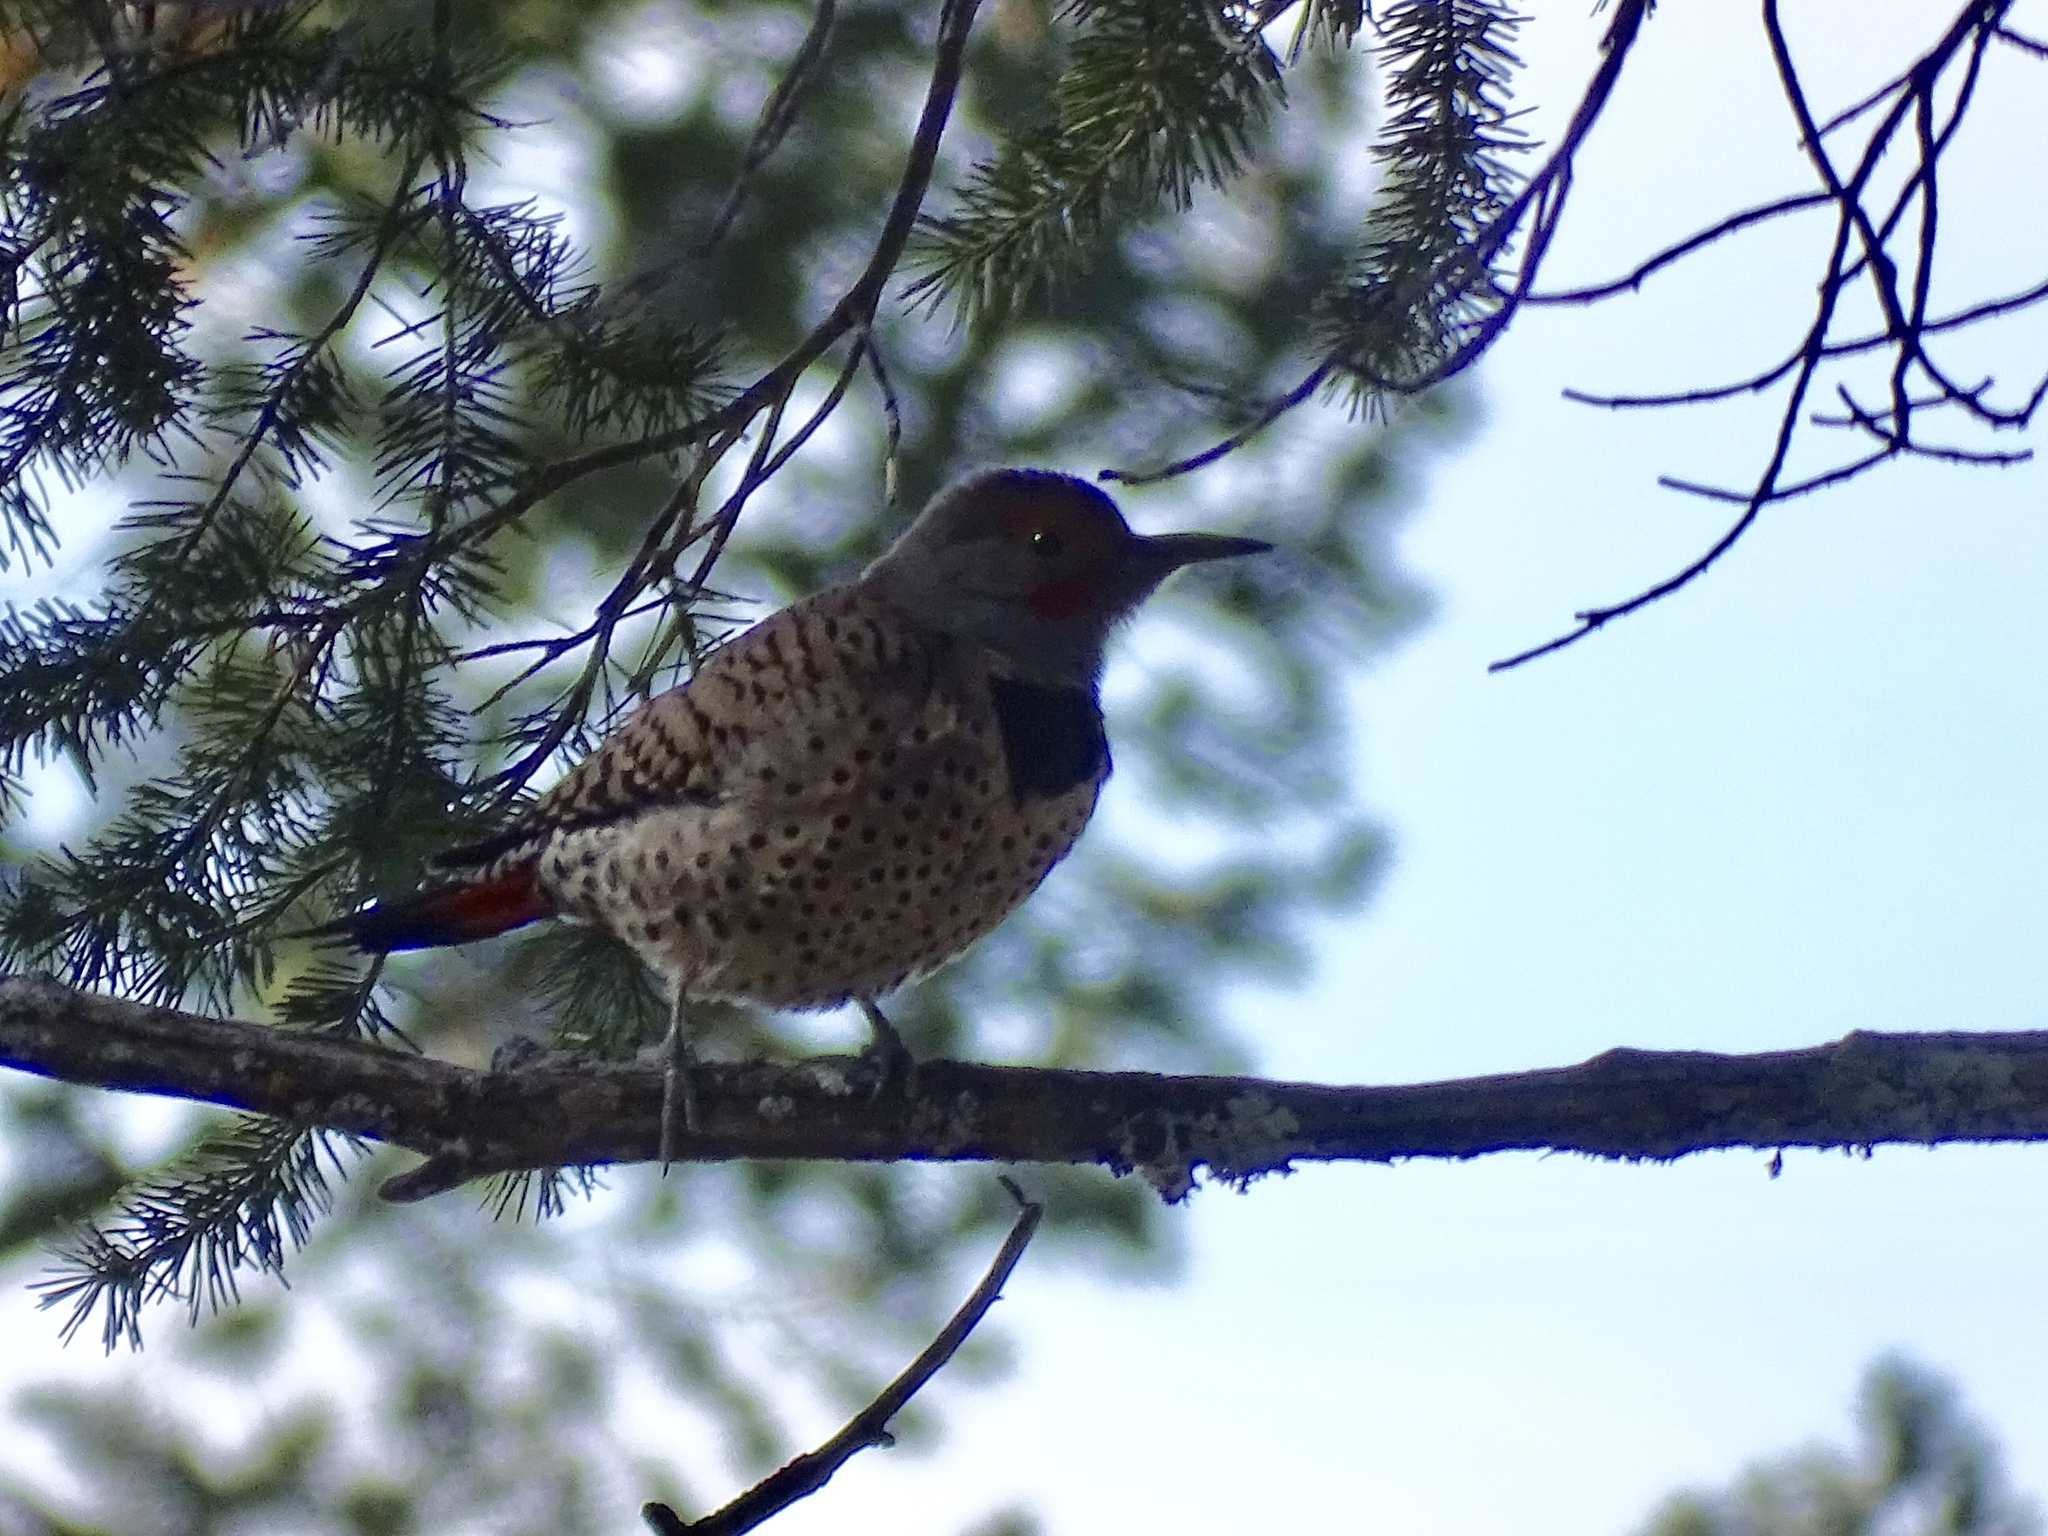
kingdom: Animalia
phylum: Chordata
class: Aves
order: Piciformes
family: Picidae
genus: Colaptes
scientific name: Colaptes auratus
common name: Northern flicker
